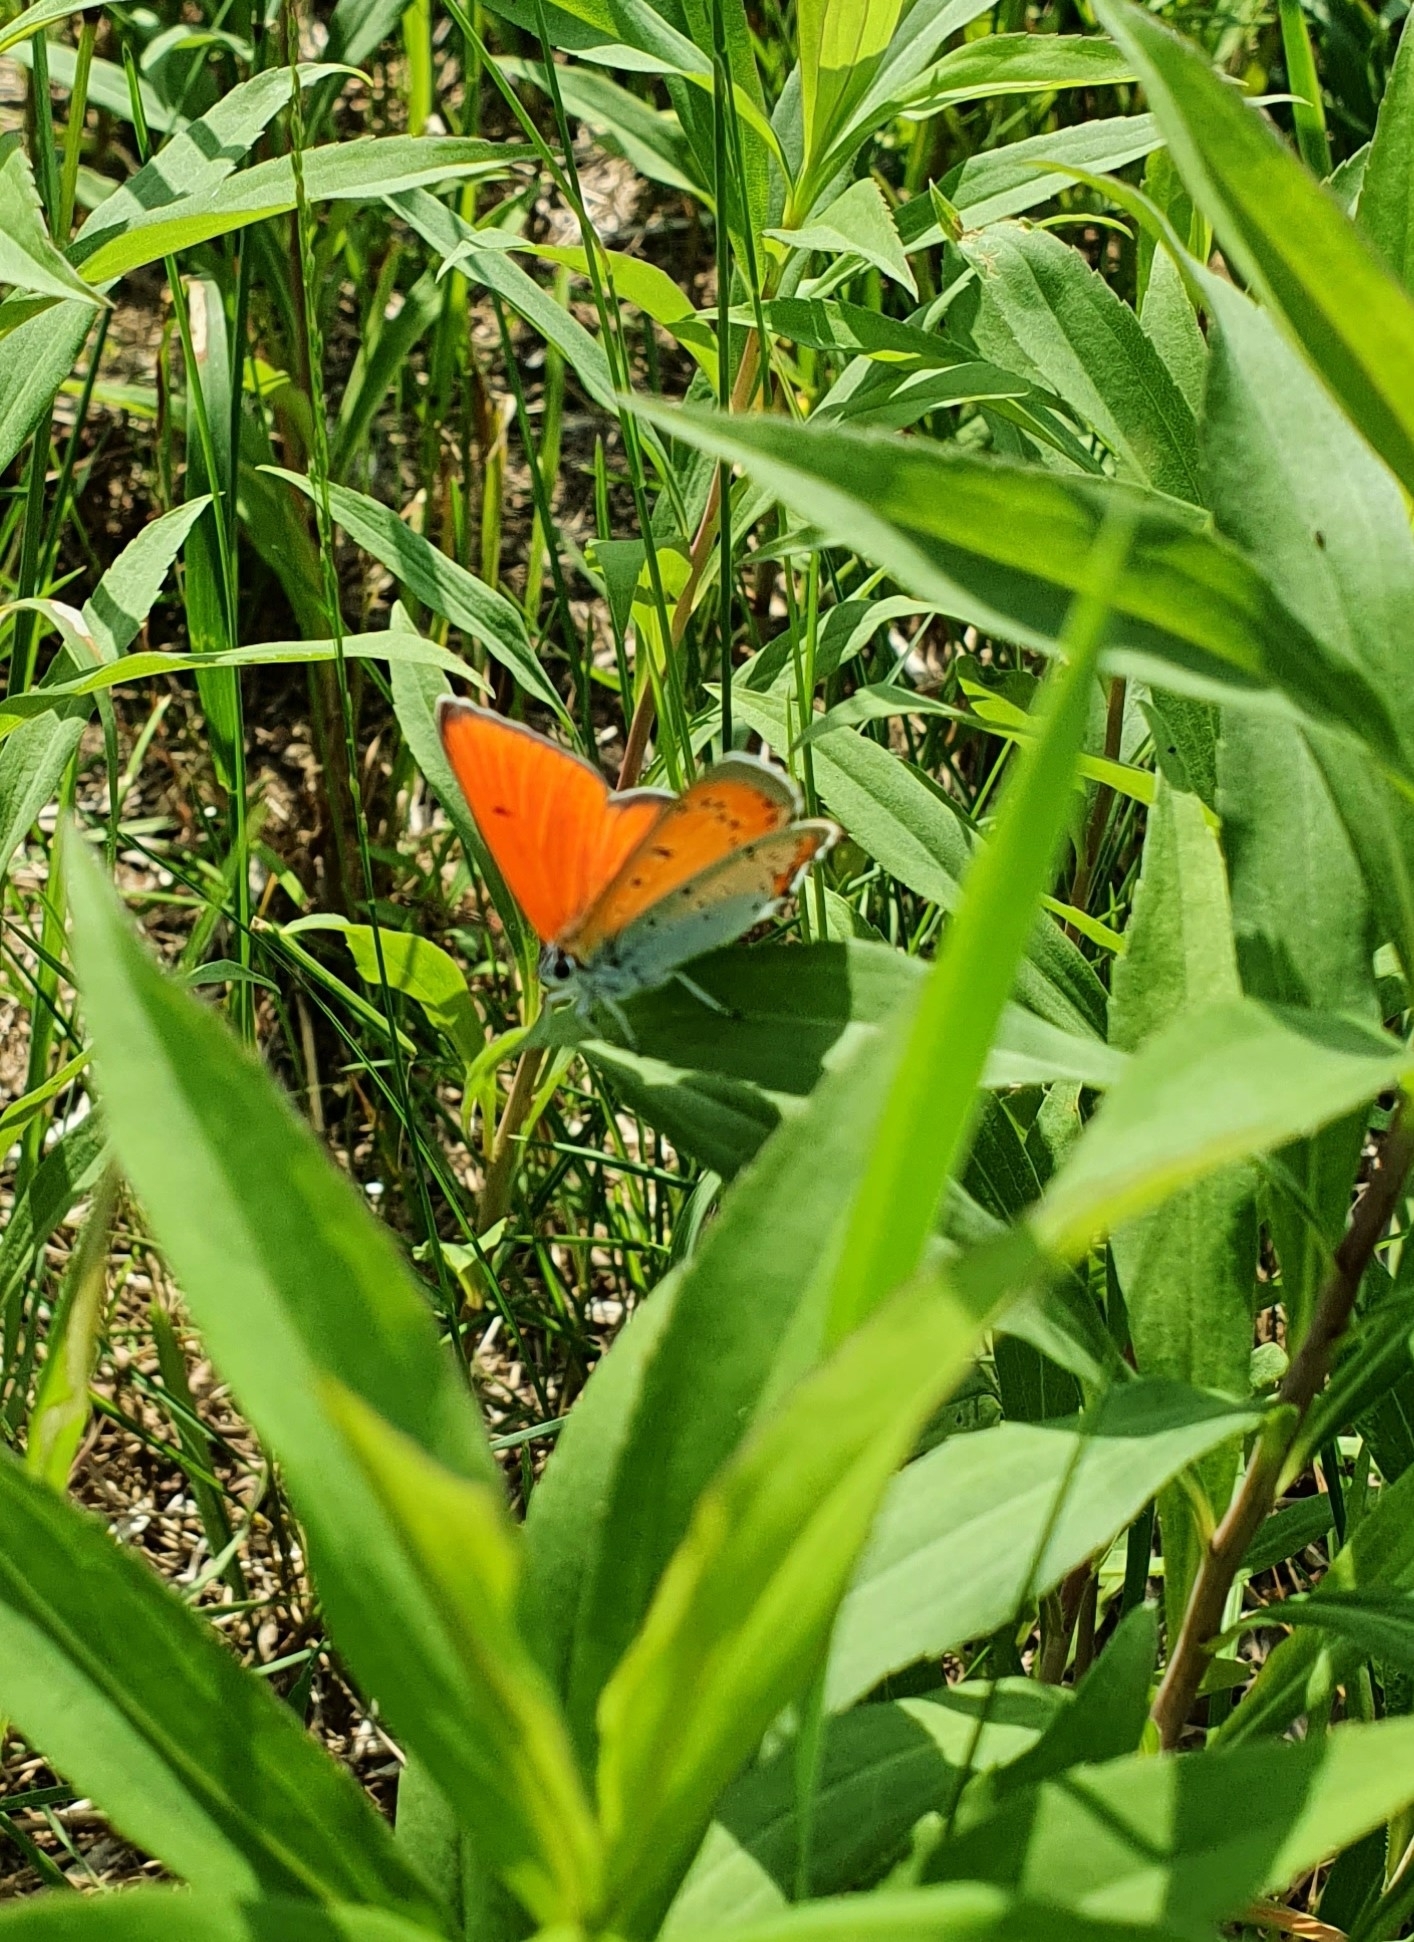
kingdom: Animalia
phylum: Arthropoda
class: Insecta
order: Lepidoptera
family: Lycaenidae
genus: Lycaena
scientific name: Lycaena dispar
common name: Large copper
